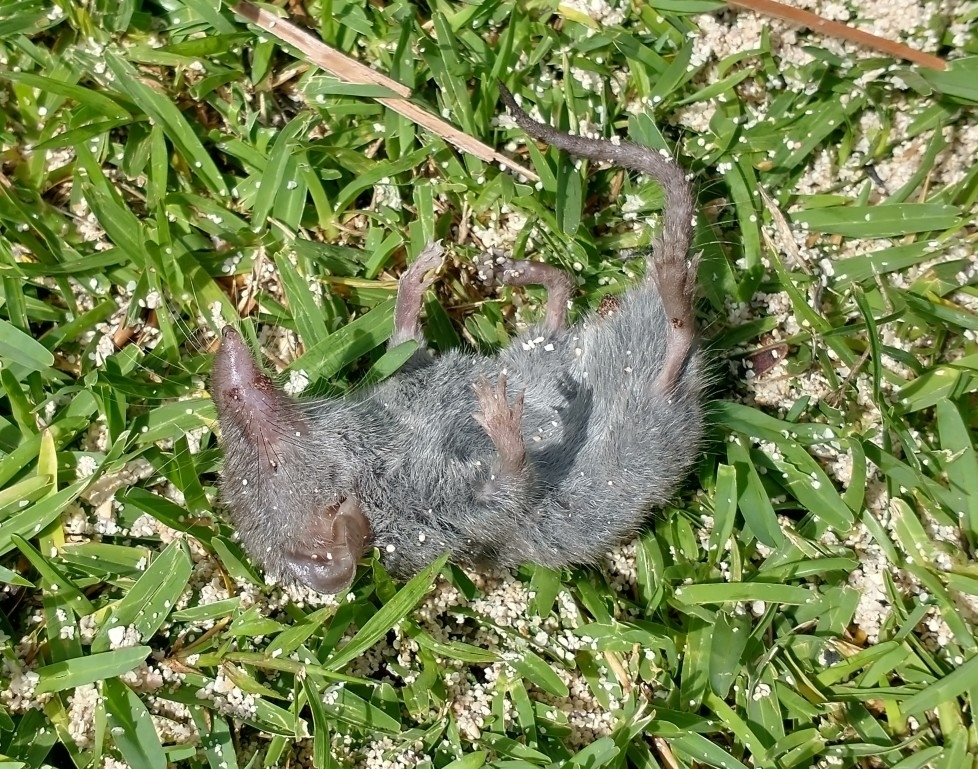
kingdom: Animalia
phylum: Chordata
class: Mammalia
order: Soricomorpha
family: Soricidae
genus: Suncus
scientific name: Suncus murinus
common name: Asian house shrew
